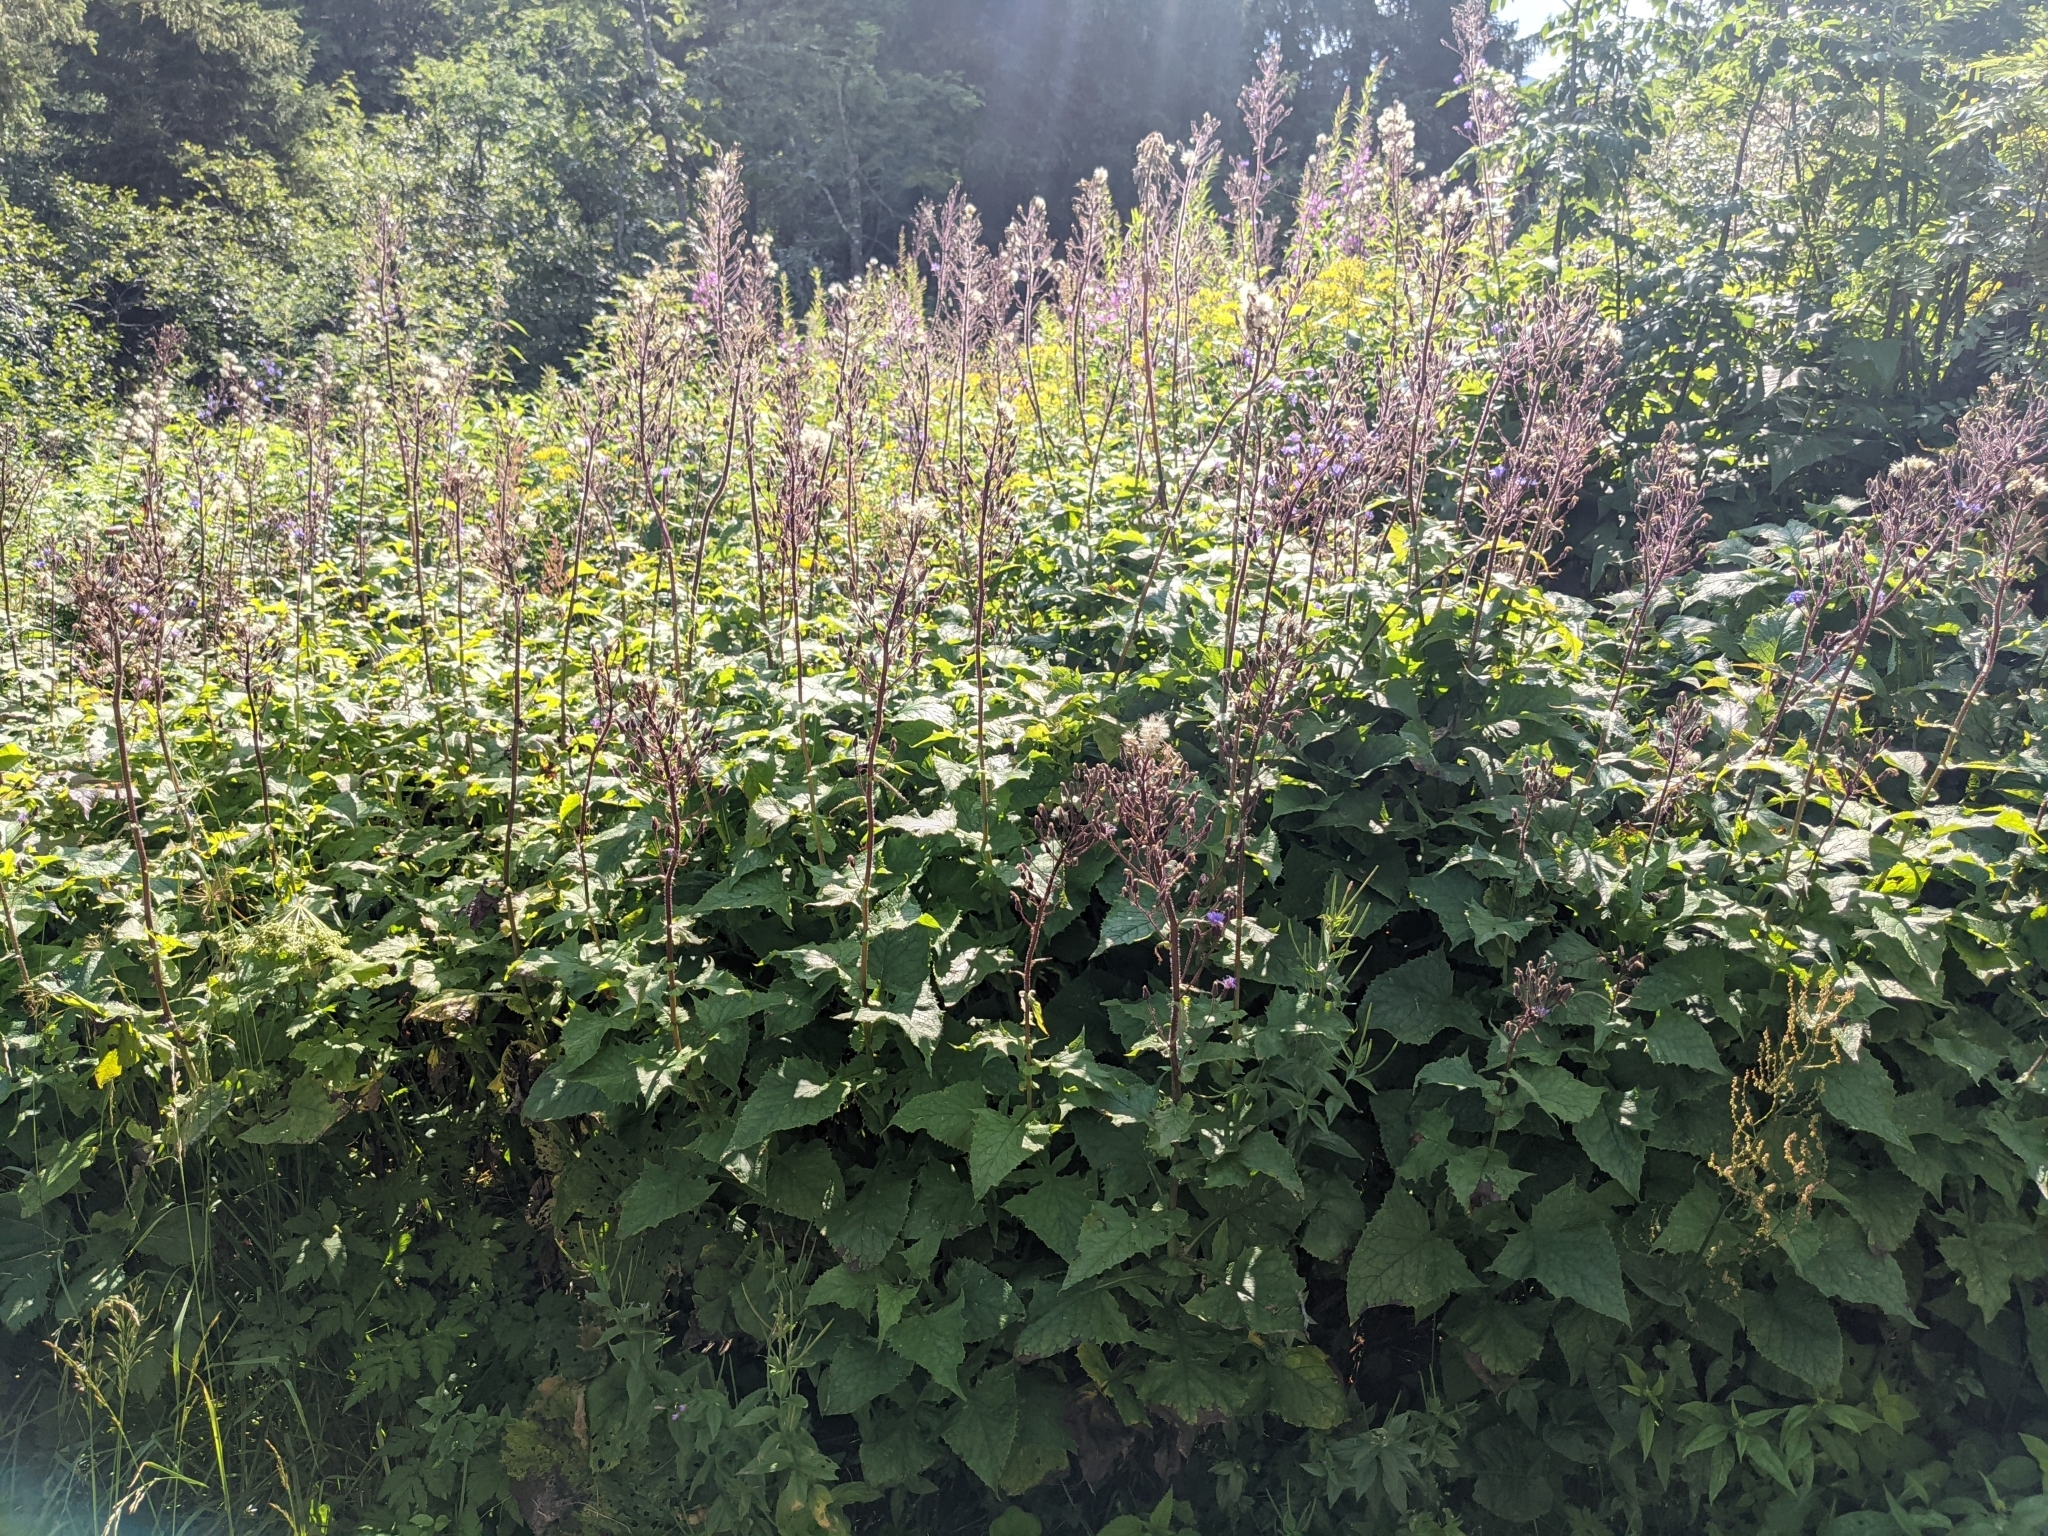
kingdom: Plantae
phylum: Tracheophyta
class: Magnoliopsida
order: Asterales
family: Asteraceae
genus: Cicerbita
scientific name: Cicerbita alpina
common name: Alpine blue-sow-thistle
